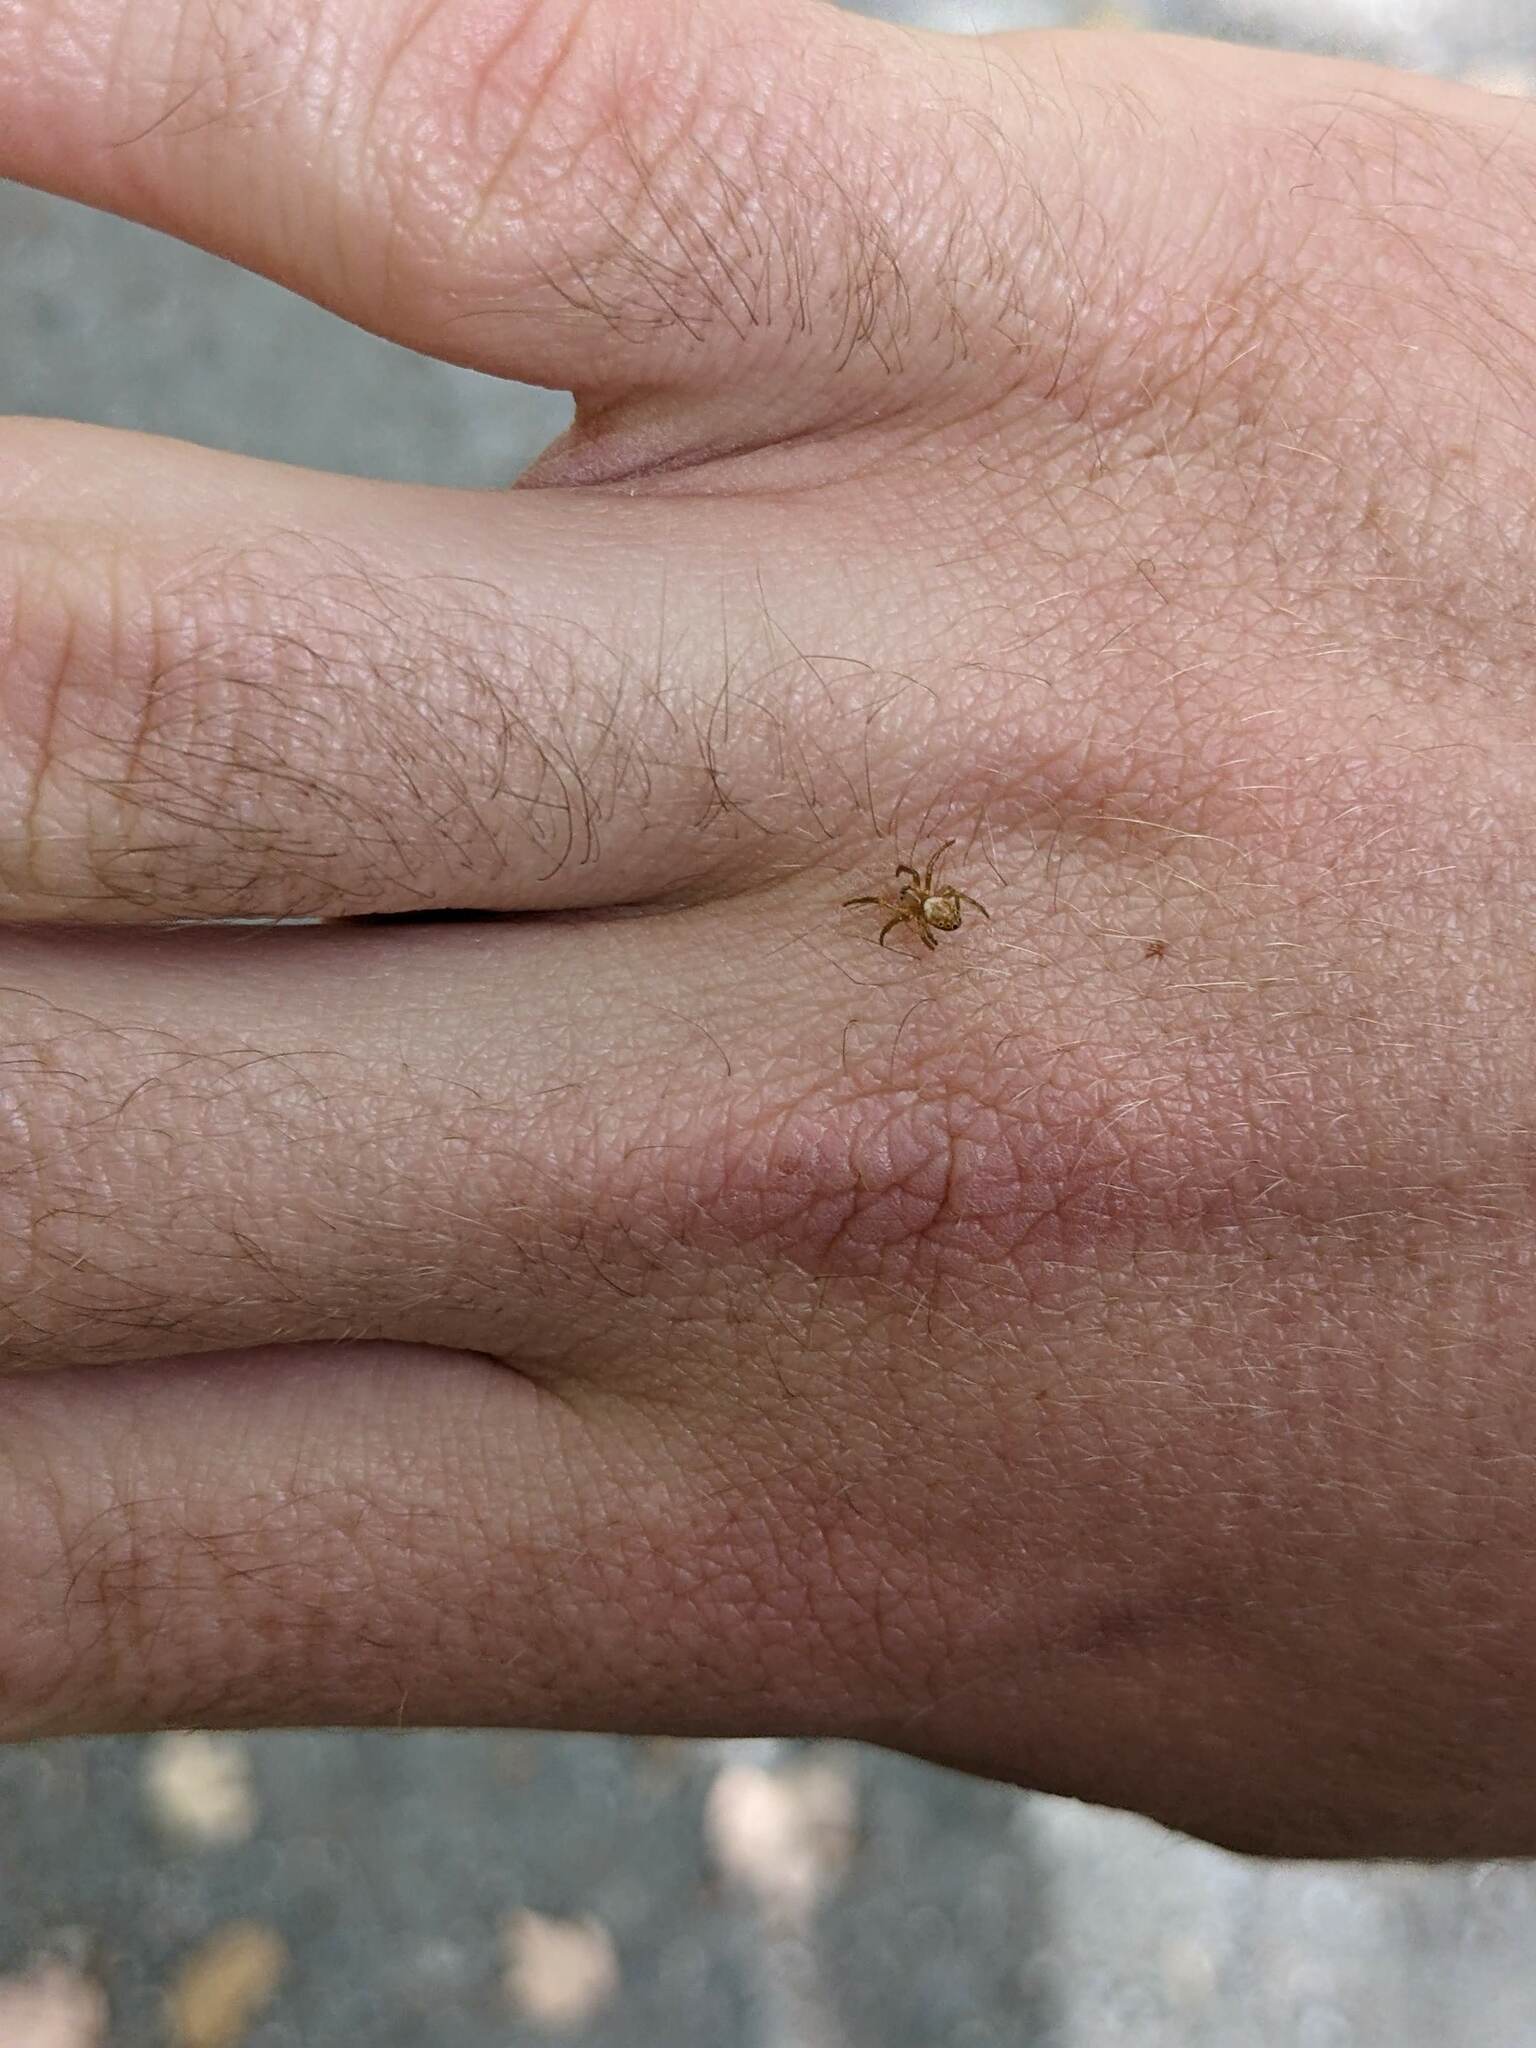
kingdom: Animalia
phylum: Arthropoda
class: Arachnida
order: Araneae
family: Araneidae
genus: Araniella
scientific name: Araniella displicata
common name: Sixspotted orb weaver
